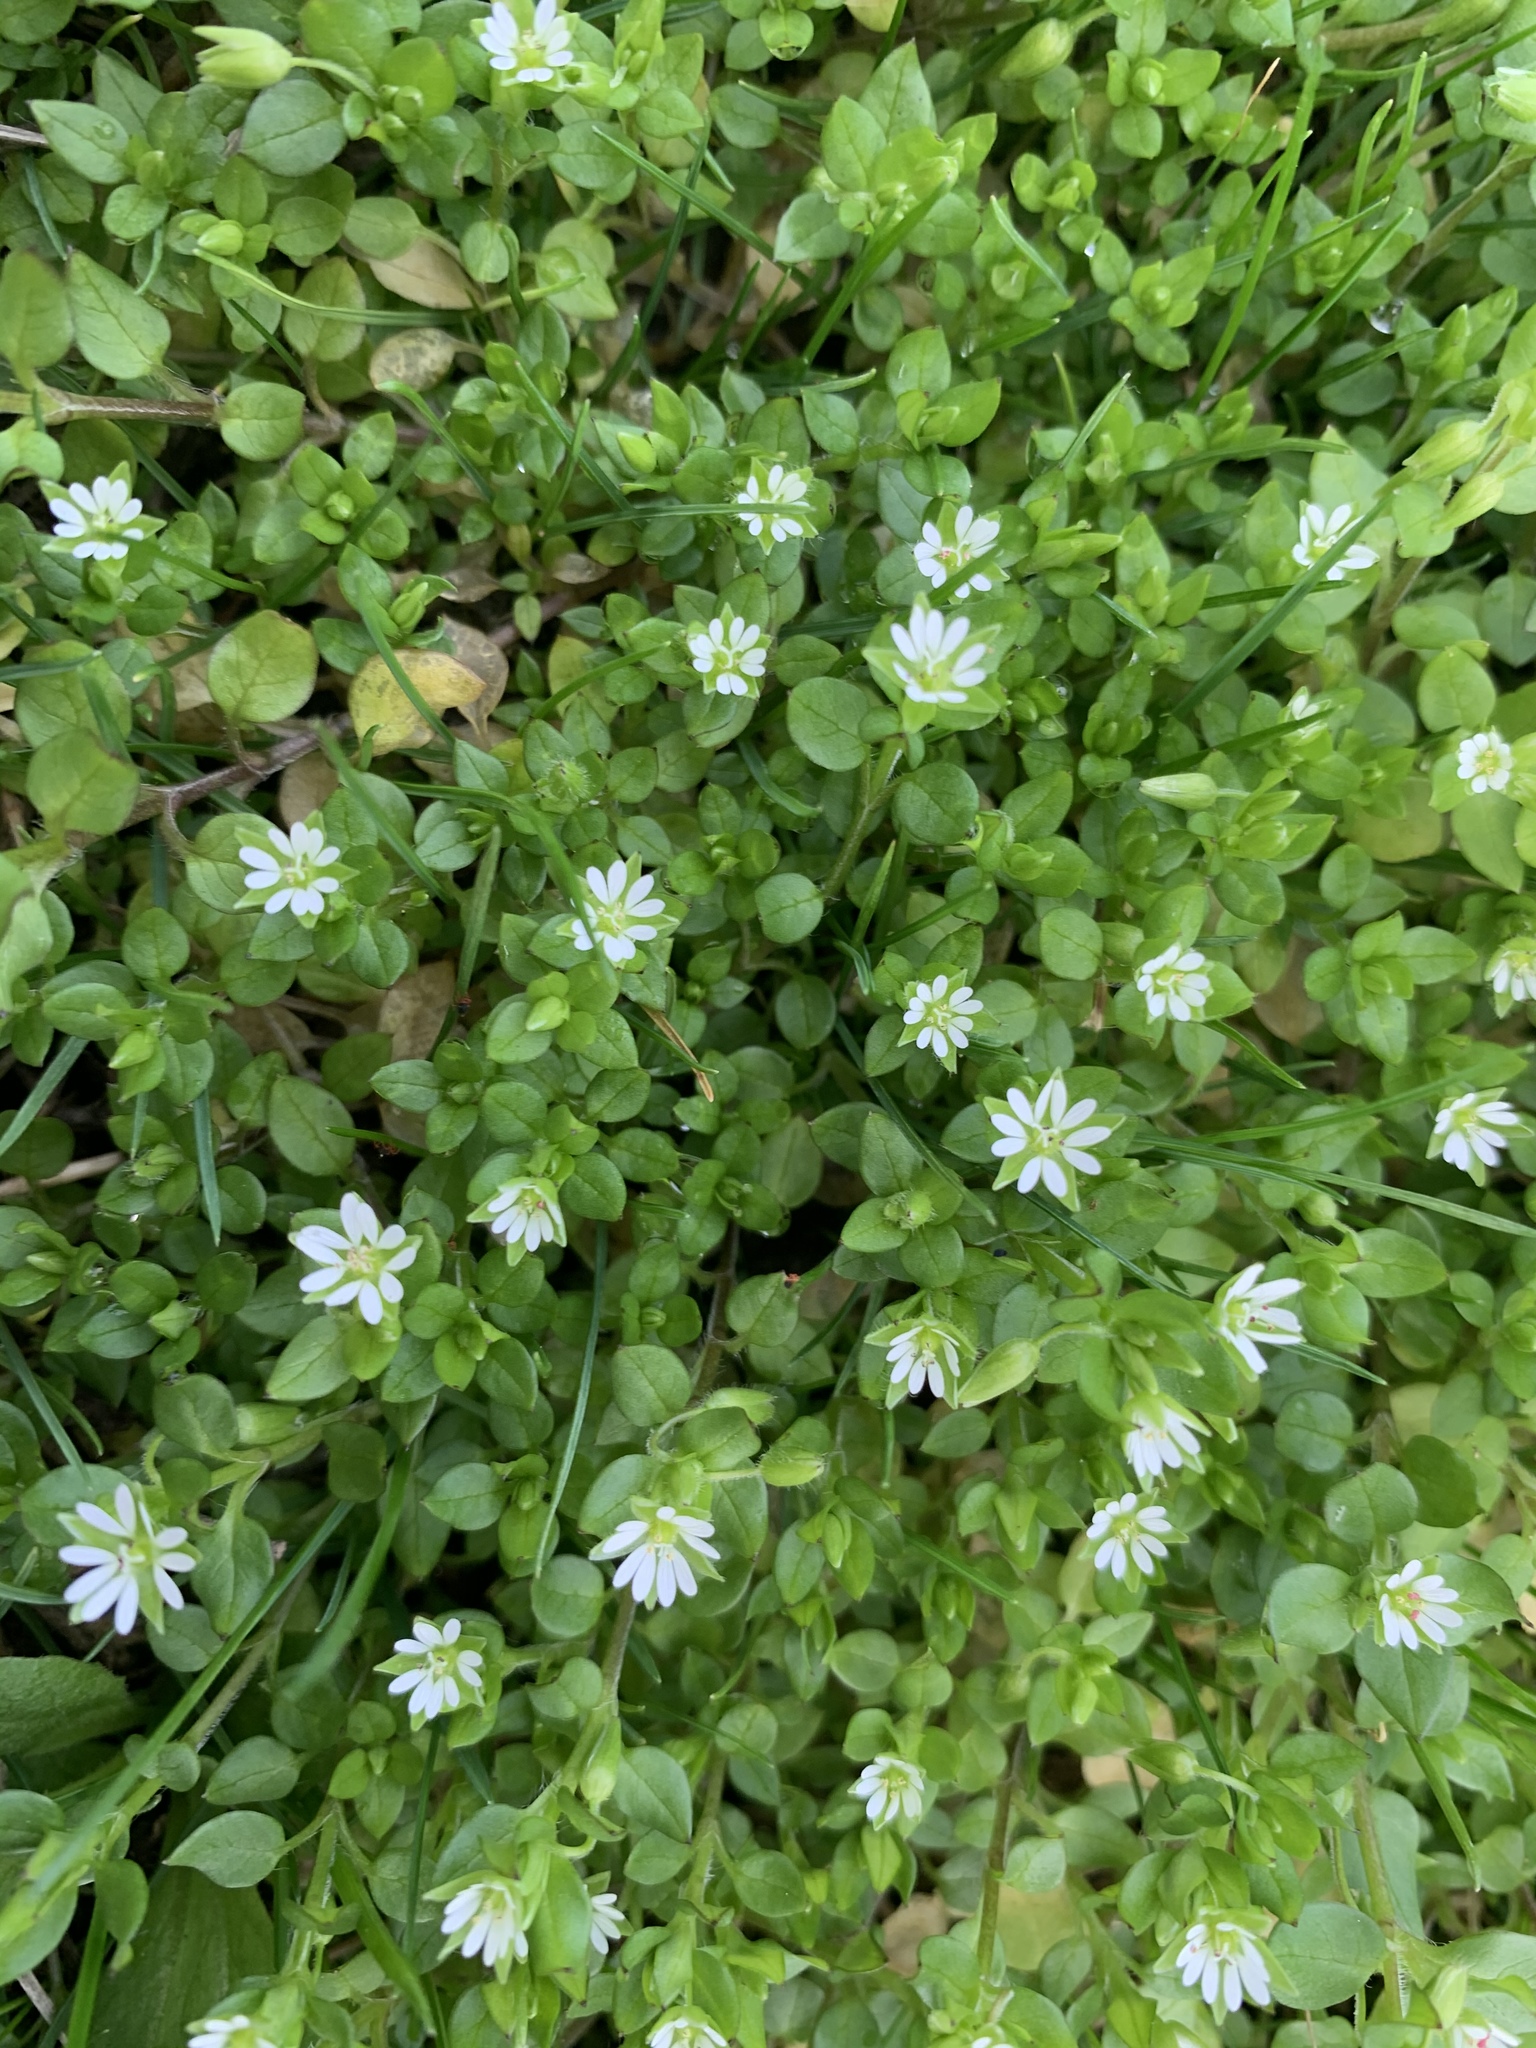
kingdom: Plantae
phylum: Tracheophyta
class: Magnoliopsida
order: Caryophyllales
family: Caryophyllaceae
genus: Stellaria
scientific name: Stellaria media
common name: Common chickweed
